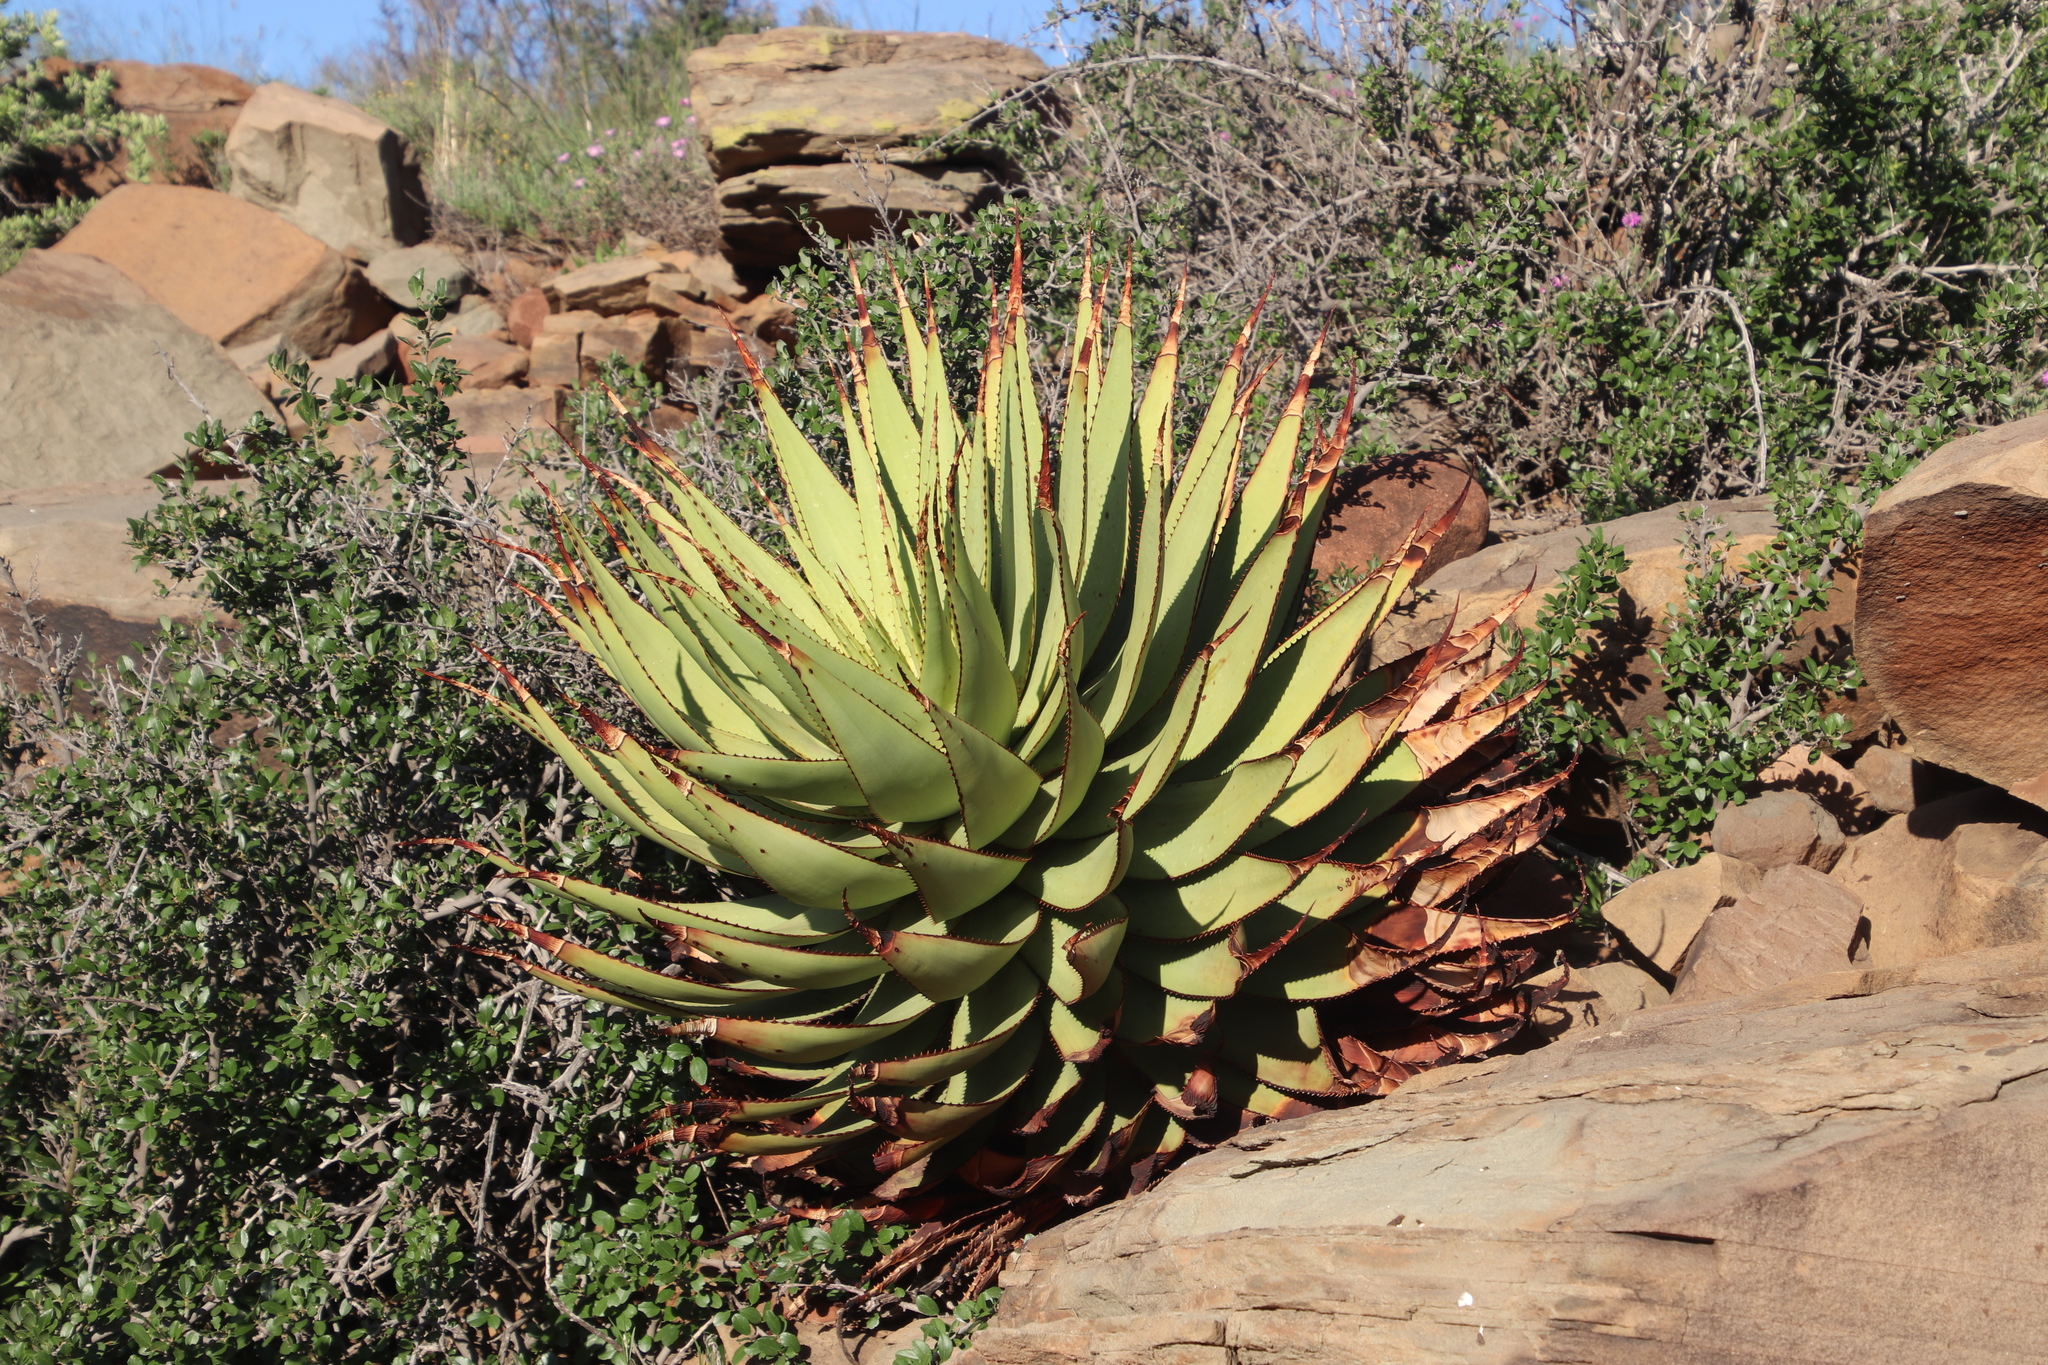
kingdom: Plantae
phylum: Tracheophyta
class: Liliopsida
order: Asparagales
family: Asphodelaceae
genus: Aloe
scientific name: Aloe broomii
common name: Berg alwyn
